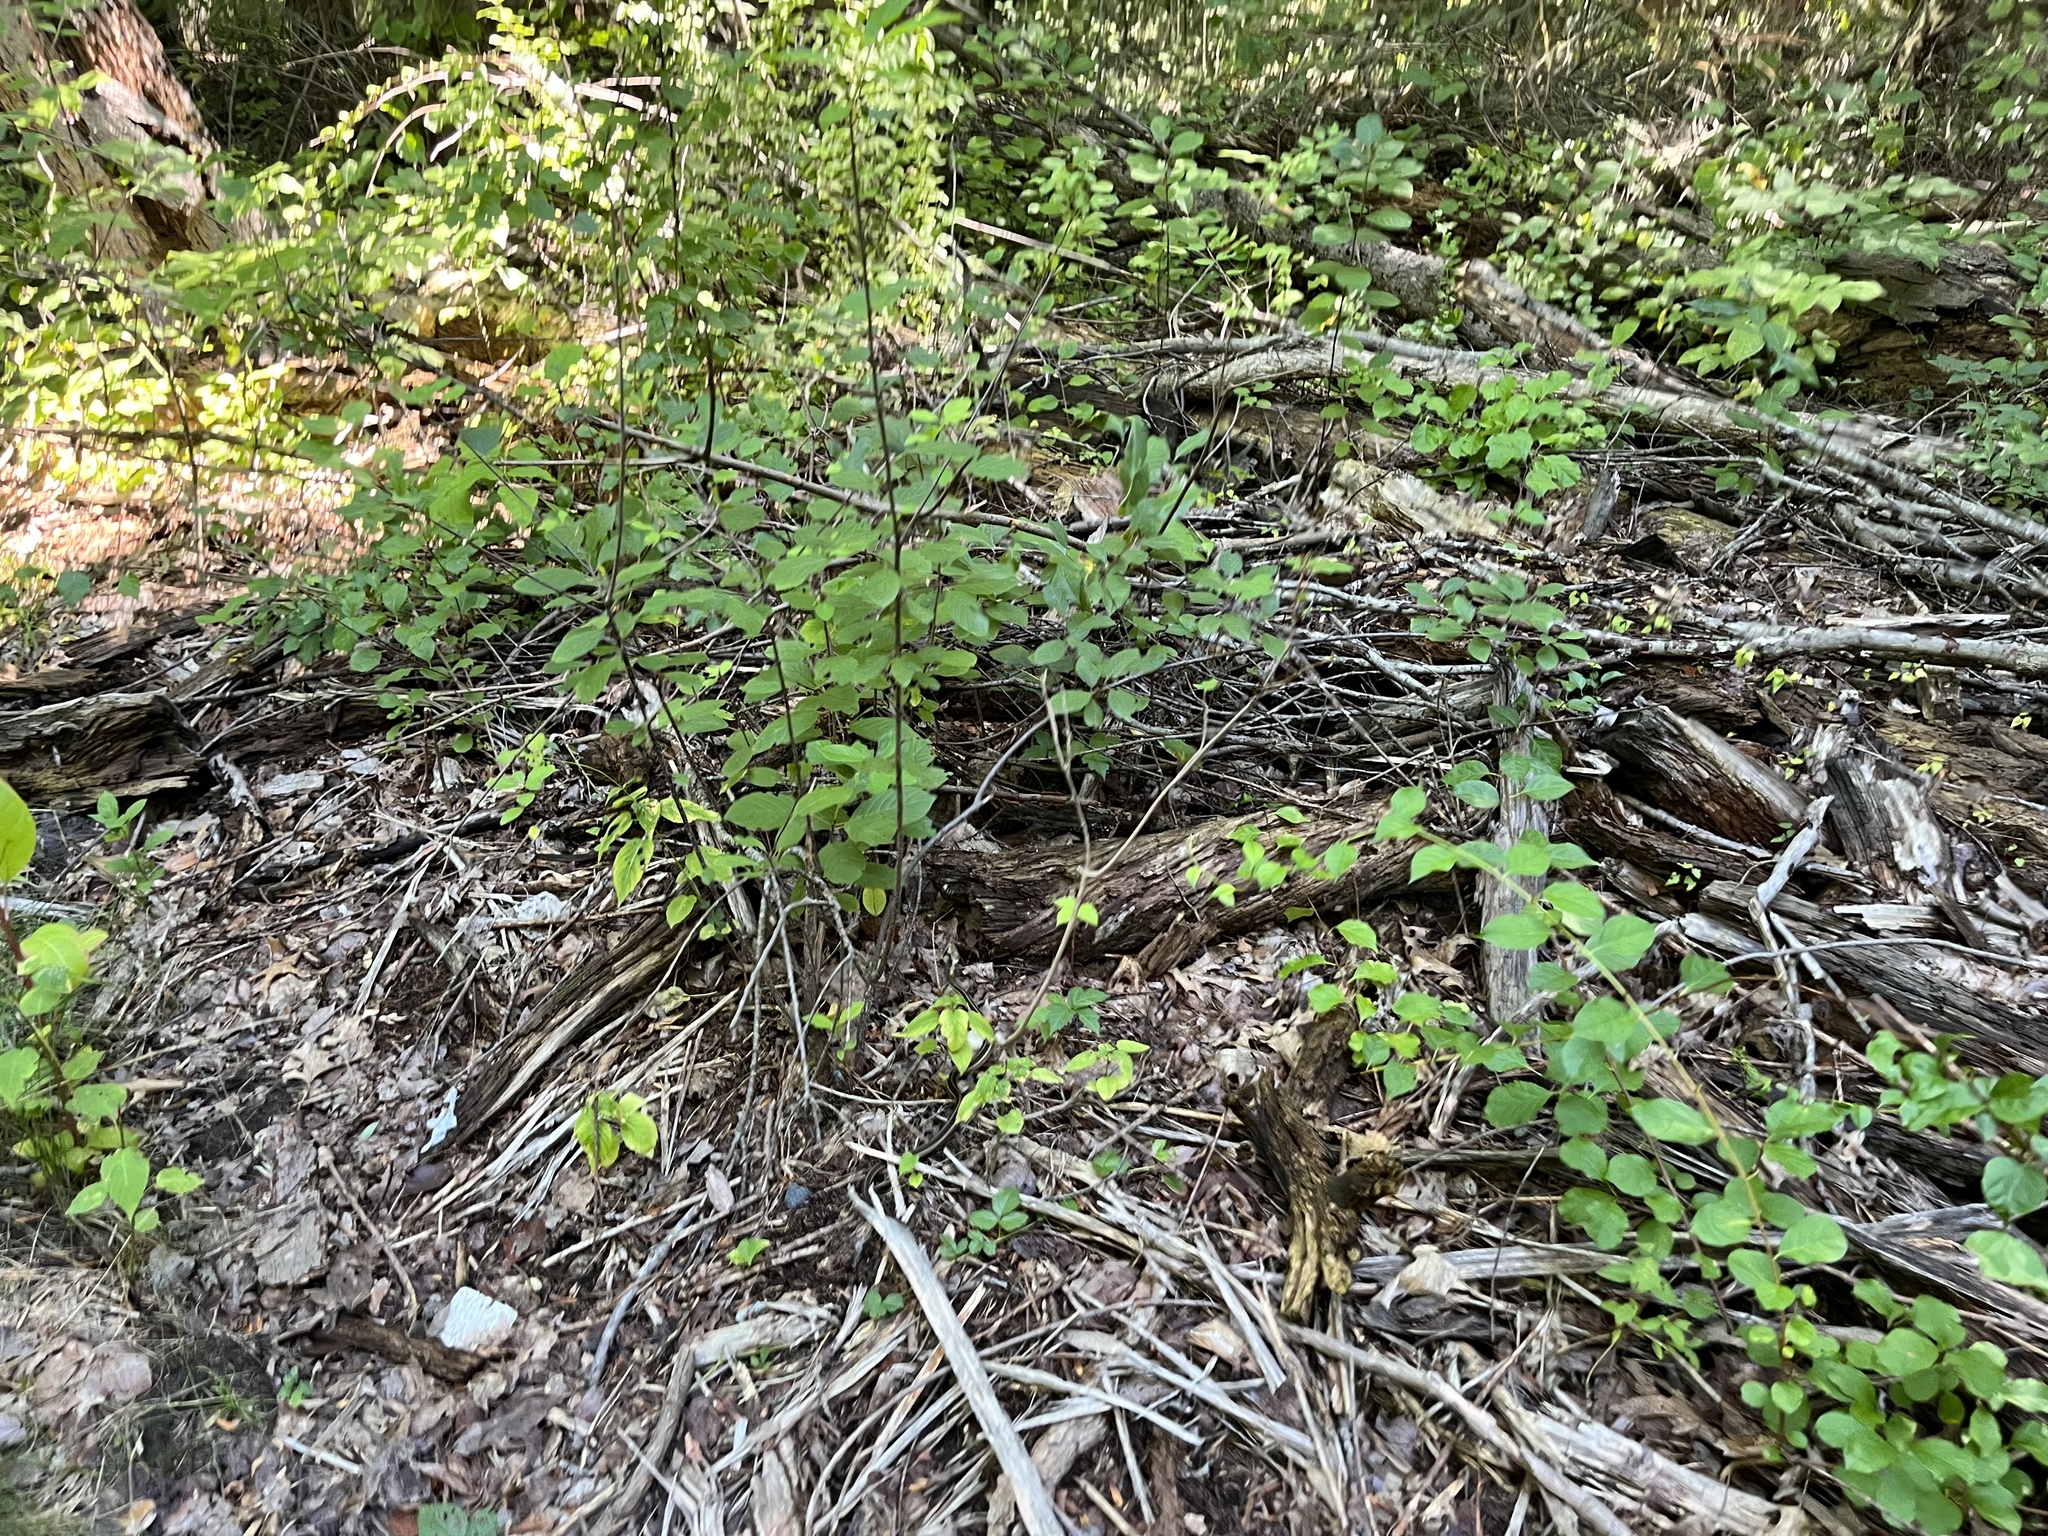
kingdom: Animalia
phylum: Chordata
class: Squamata
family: Colubridae
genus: Thamnophis
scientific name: Thamnophis
